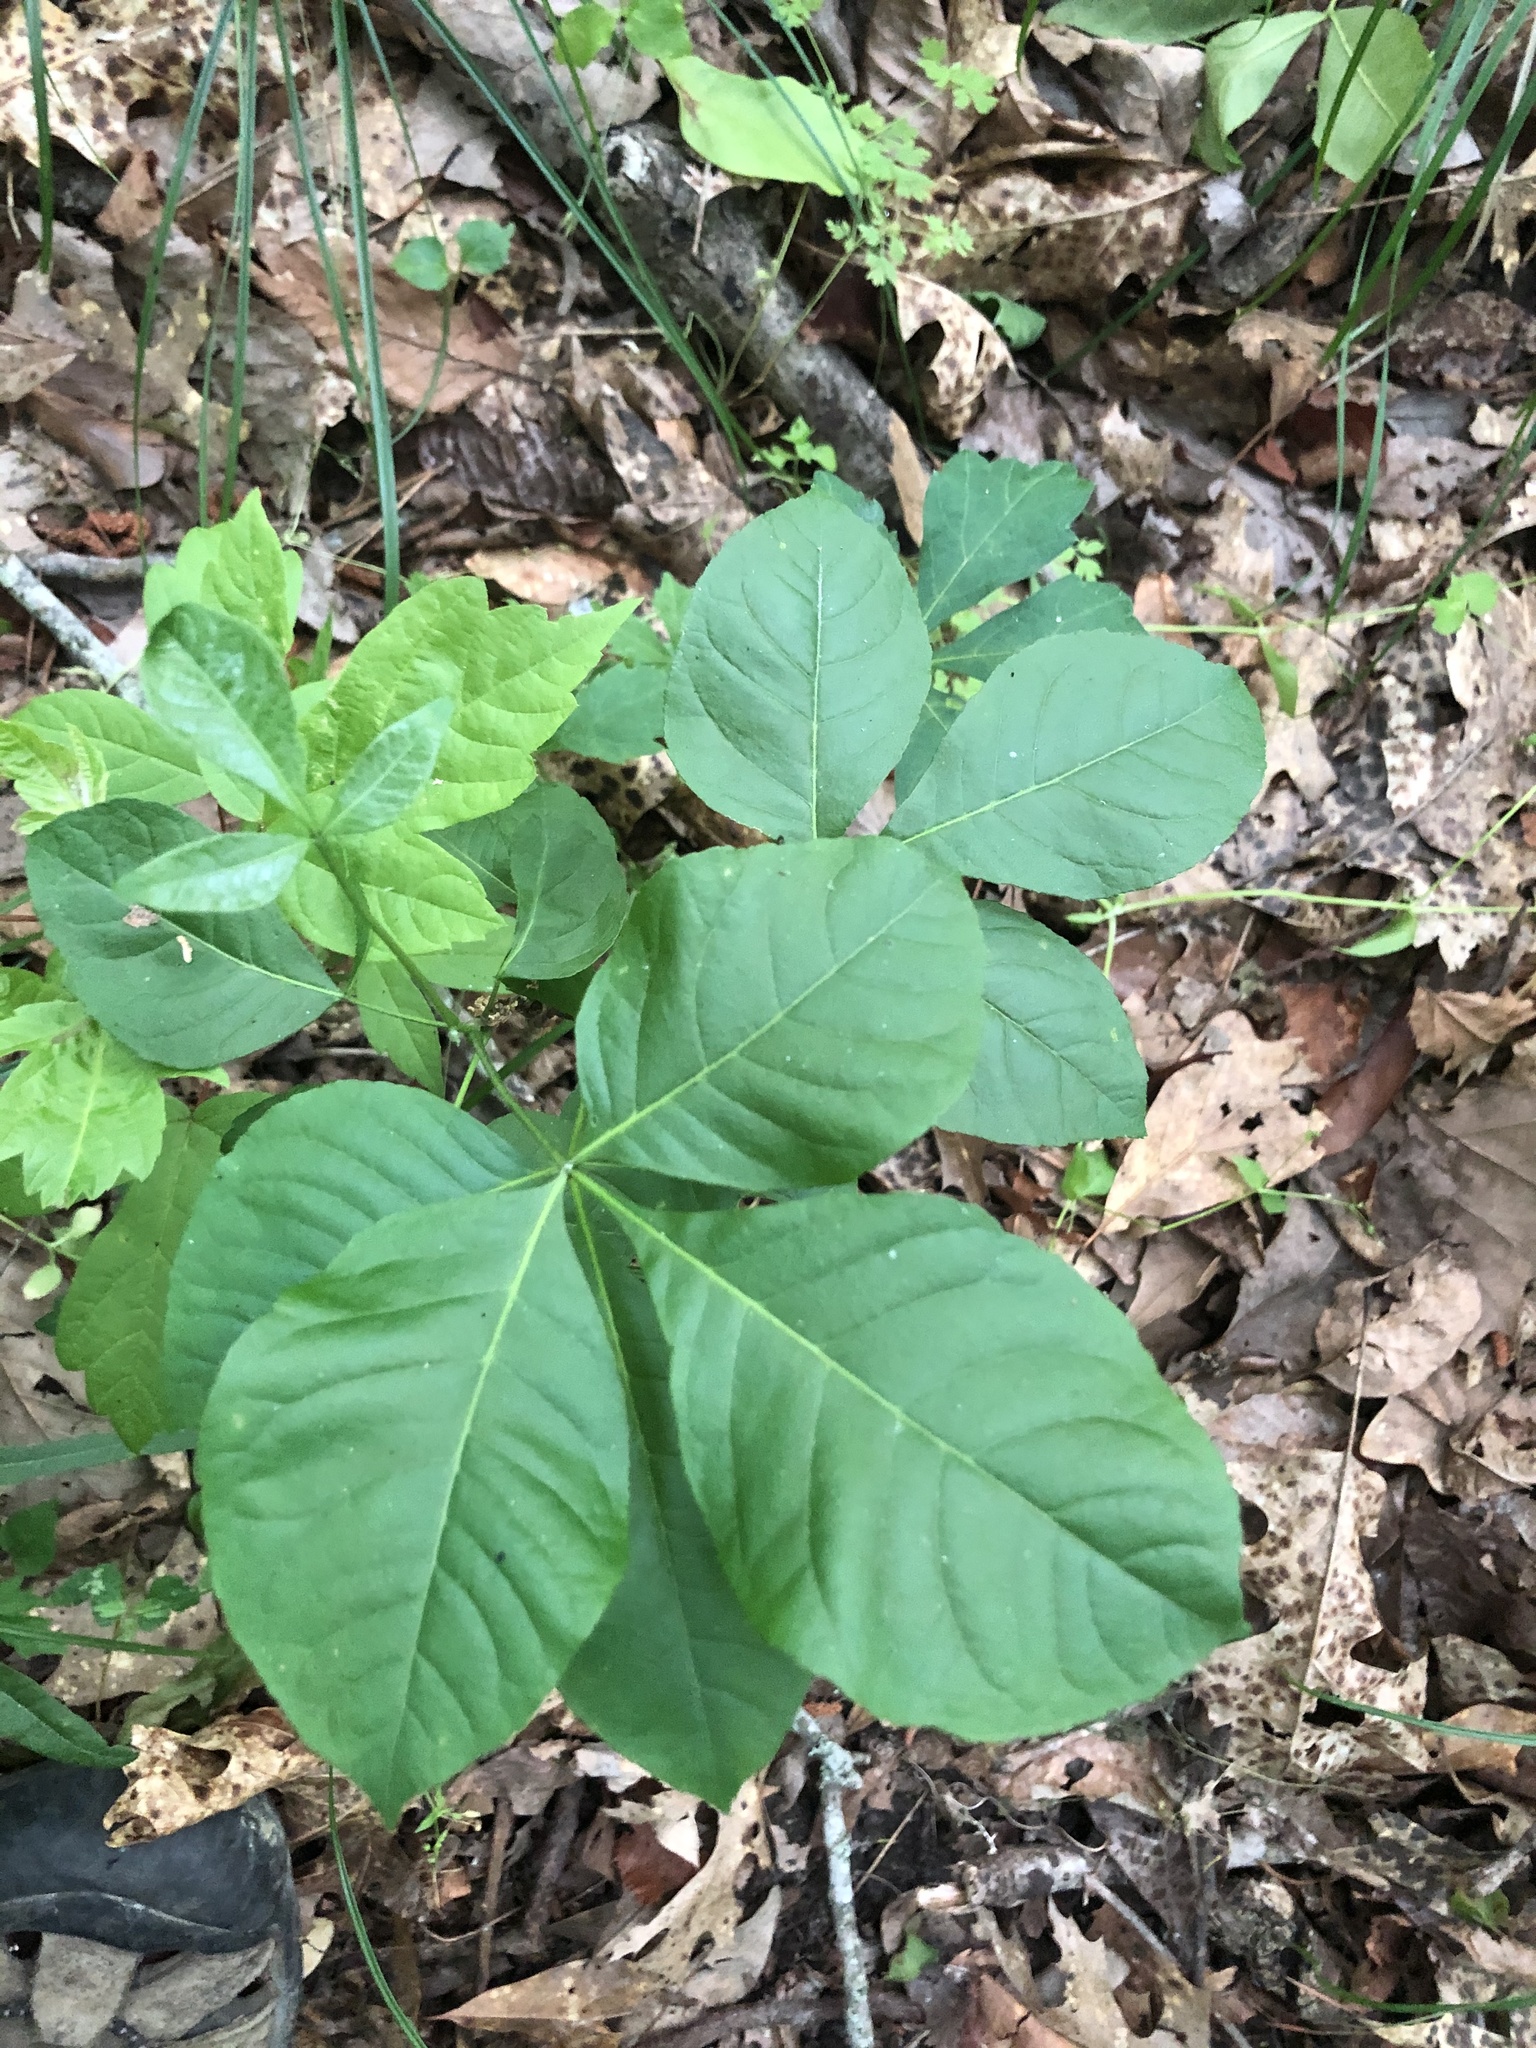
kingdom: Plantae
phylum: Tracheophyta
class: Magnoliopsida
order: Sapindales
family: Rutaceae
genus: Ptelea
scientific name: Ptelea trifoliata
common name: Common hop-tree
